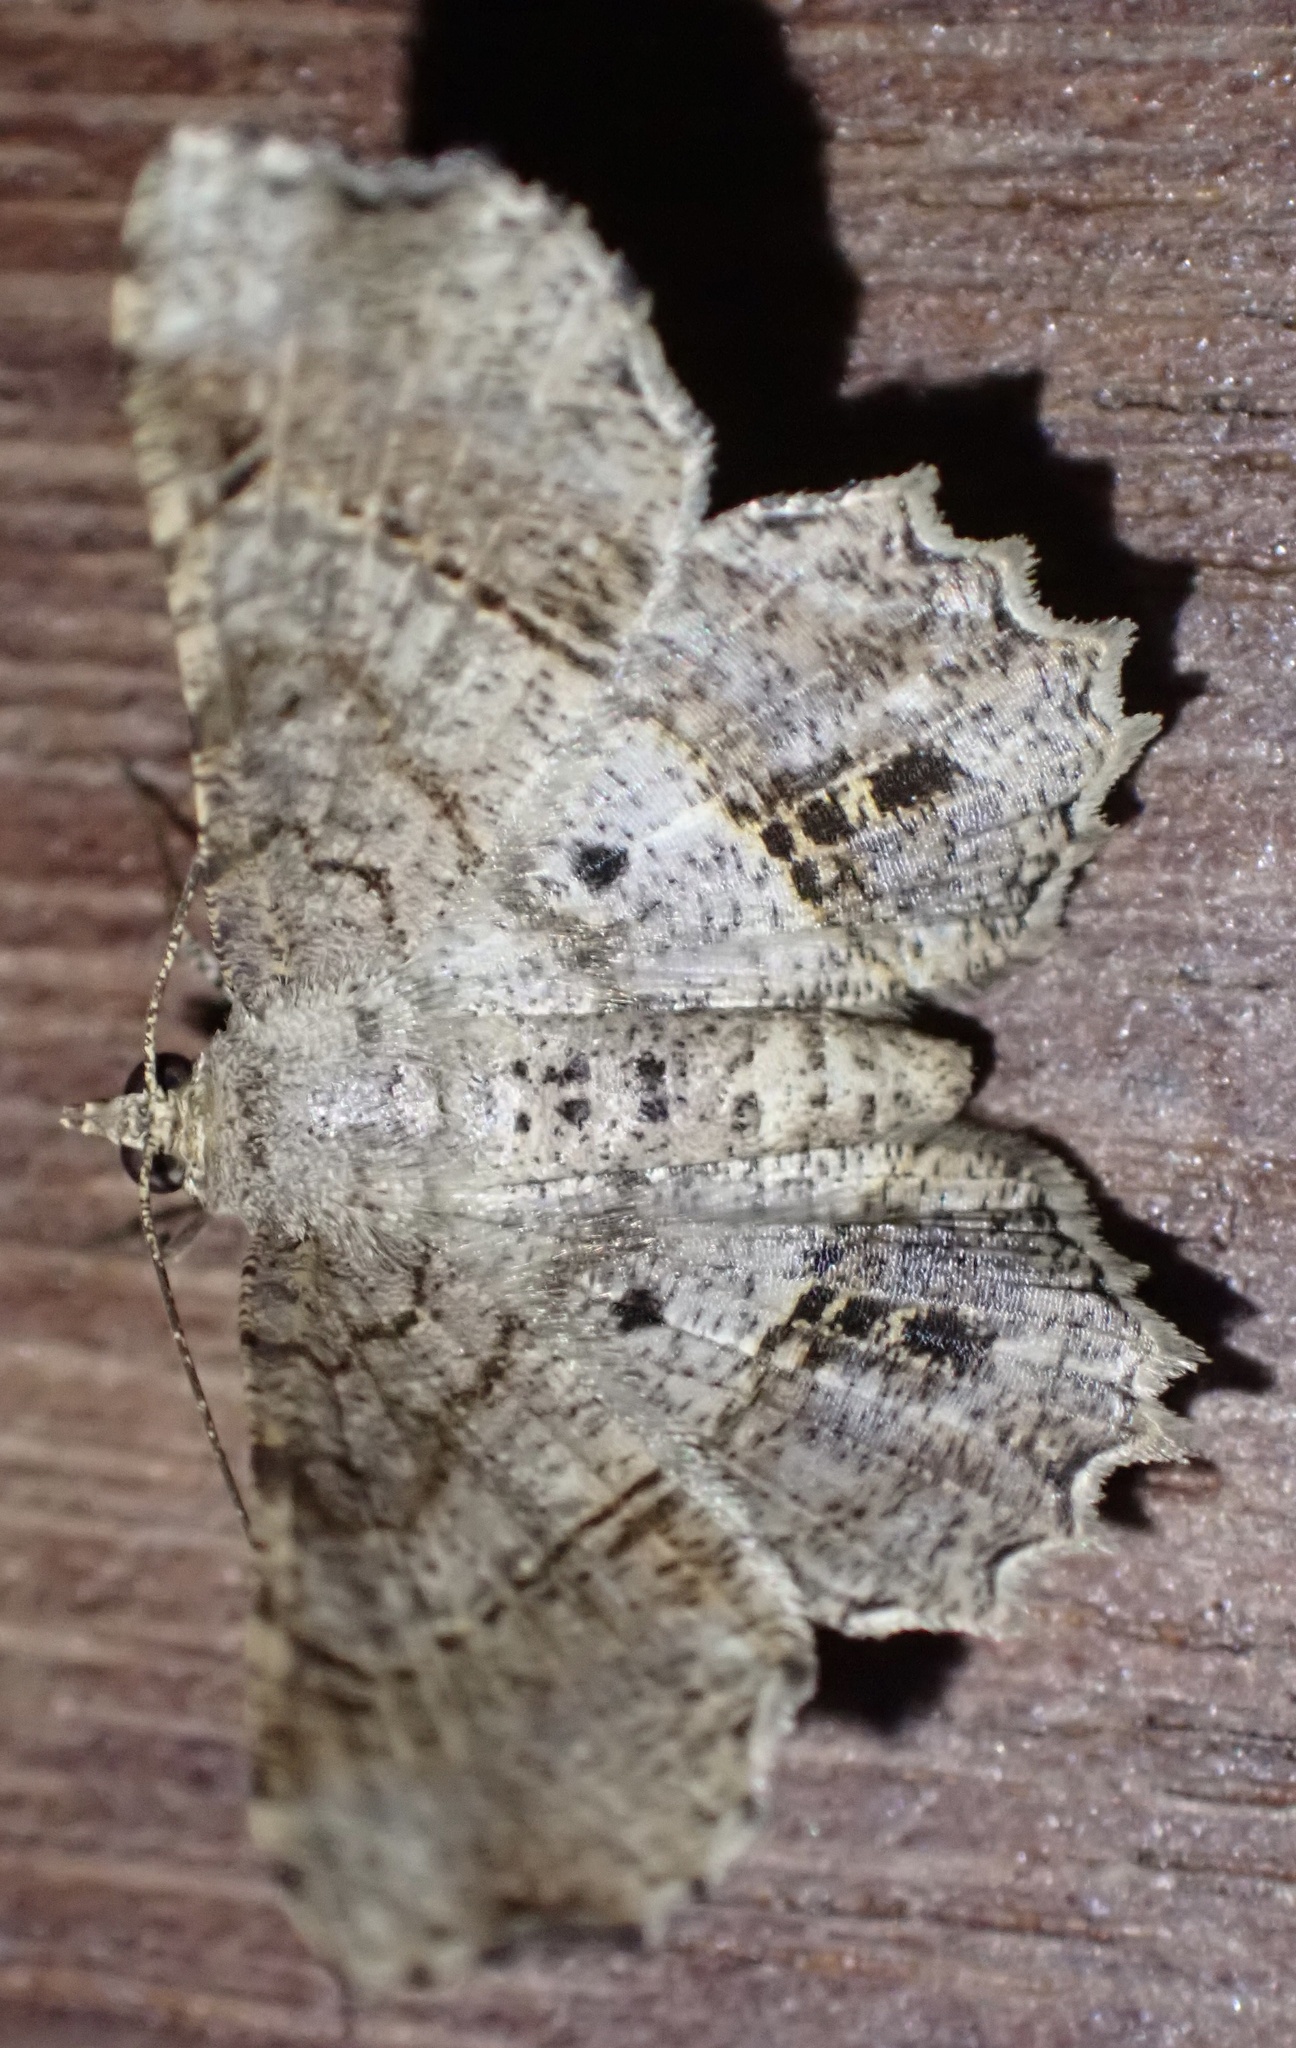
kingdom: Animalia
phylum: Arthropoda
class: Insecta
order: Lepidoptera
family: Geometridae
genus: Chiasmia
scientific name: Chiasmia avitusaria
